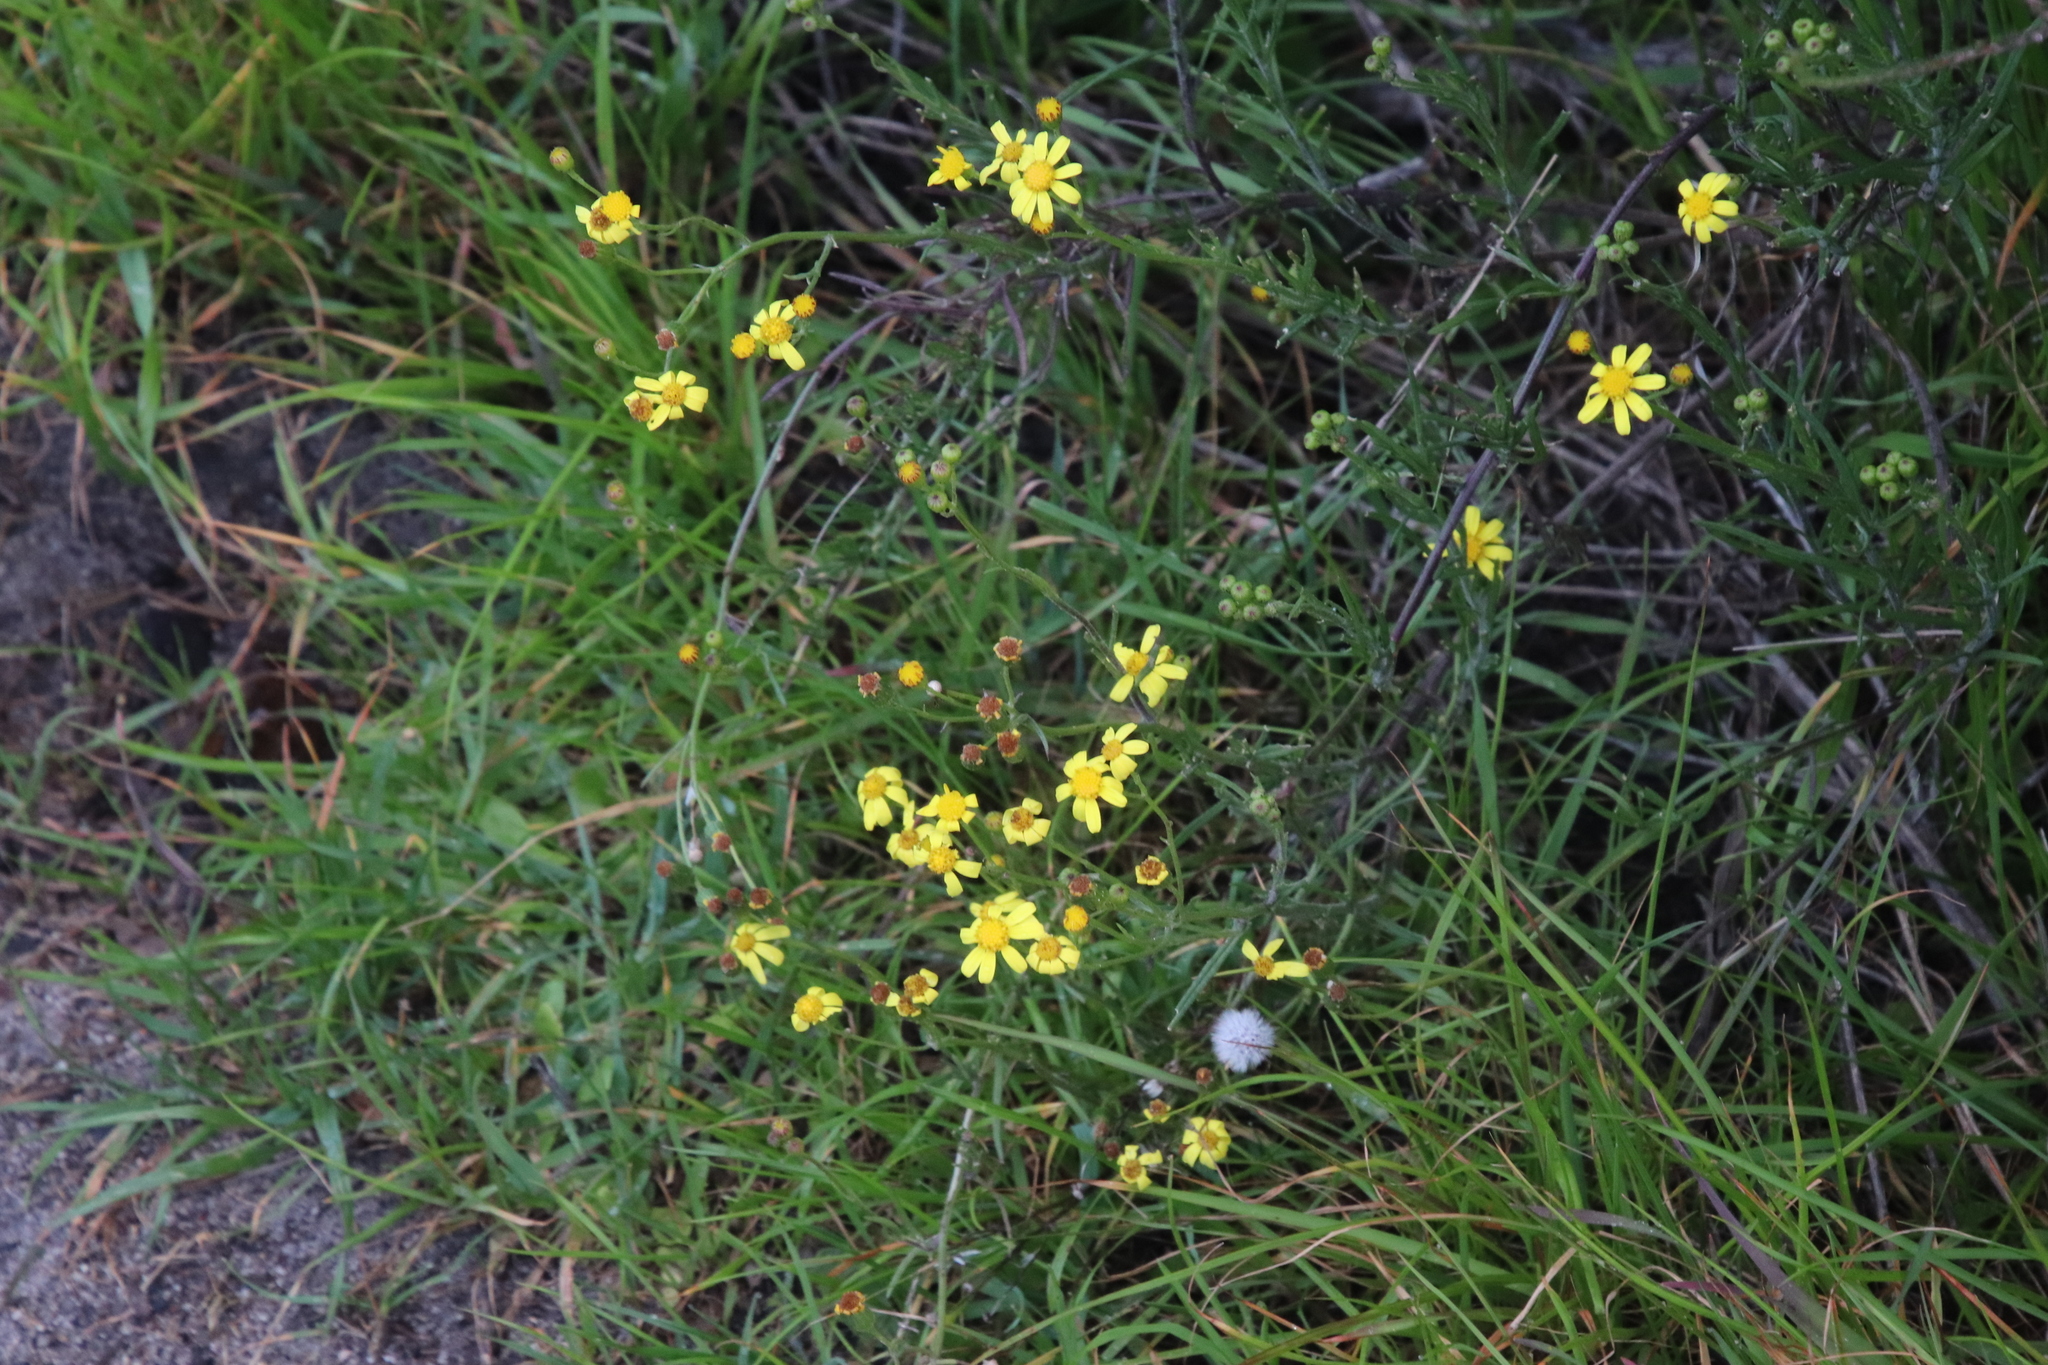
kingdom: Plantae
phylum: Tracheophyta
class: Magnoliopsida
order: Asterales
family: Asteraceae
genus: Senecio
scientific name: Senecio burchellii
